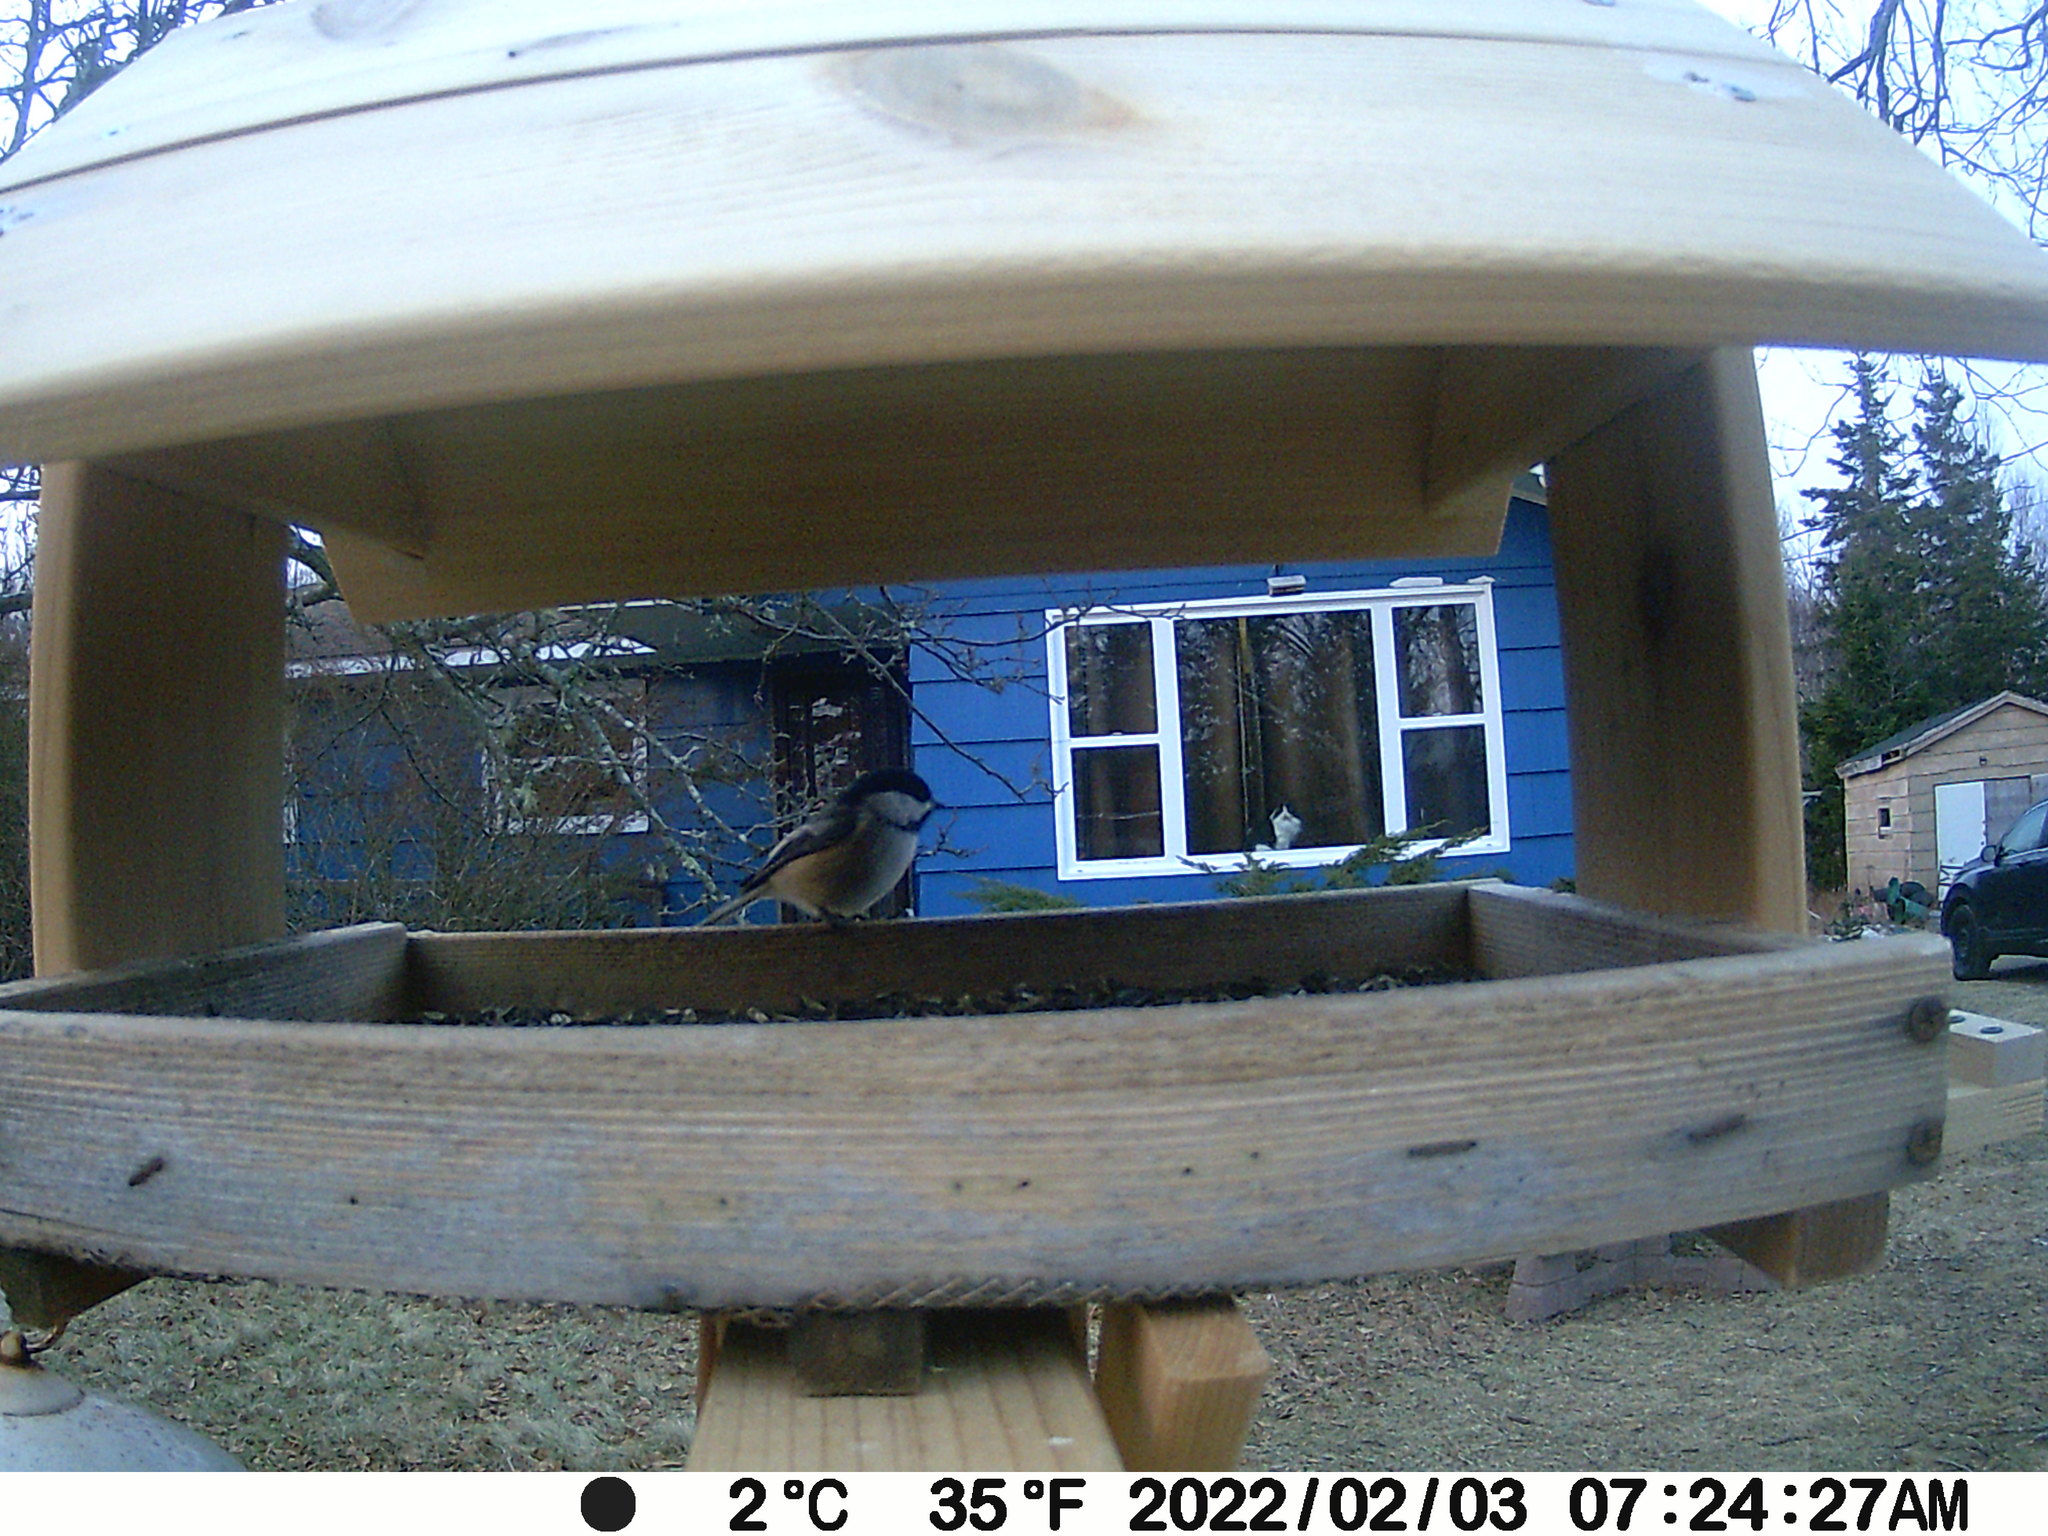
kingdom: Animalia
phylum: Chordata
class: Aves
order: Passeriformes
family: Paridae
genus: Poecile
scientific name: Poecile atricapillus
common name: Black-capped chickadee
